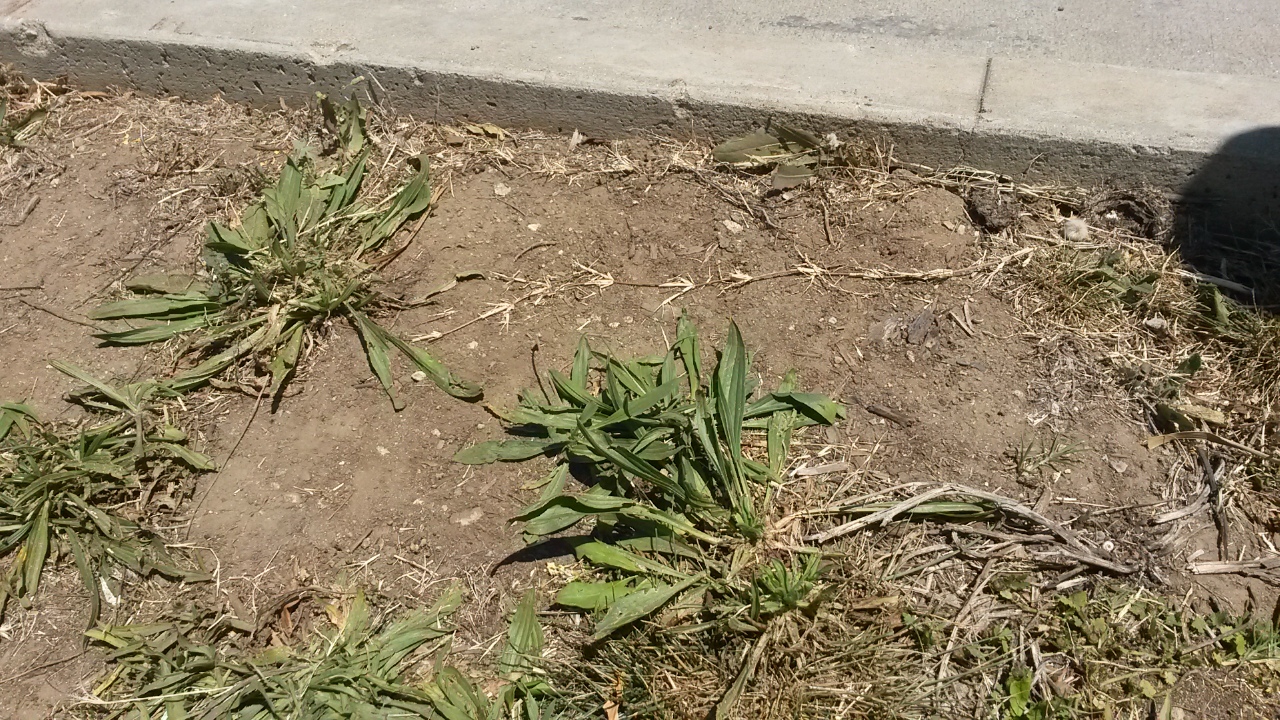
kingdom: Plantae
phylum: Tracheophyta
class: Magnoliopsida
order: Lamiales
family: Plantaginaceae
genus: Plantago
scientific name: Plantago lanceolata
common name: Ribwort plantain
